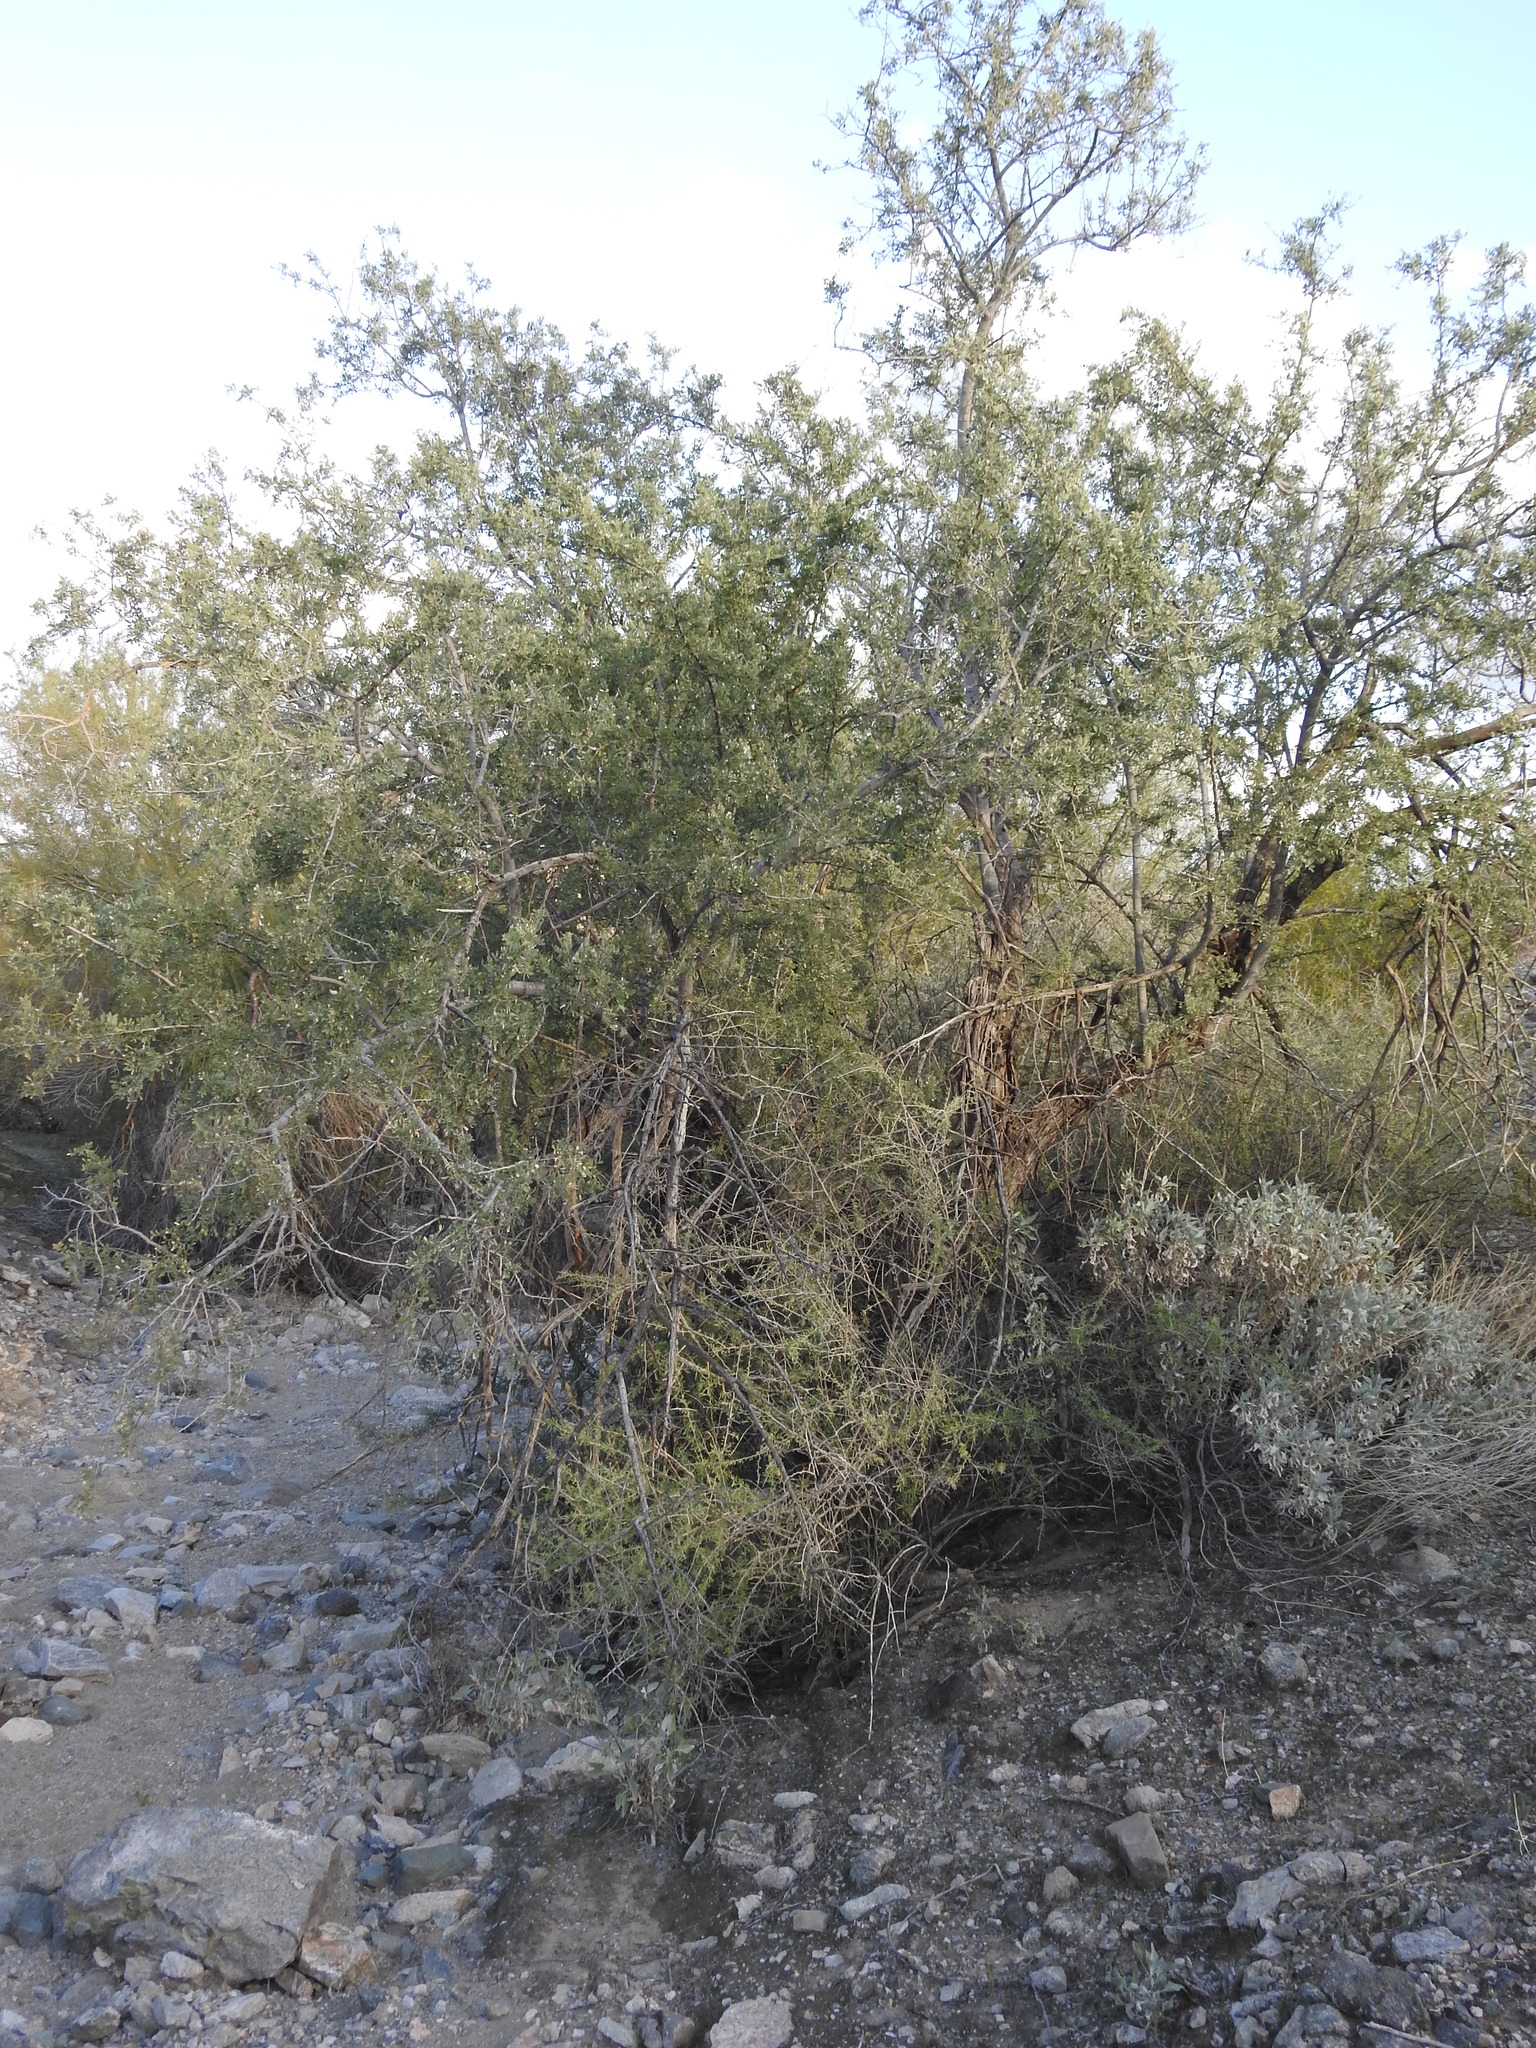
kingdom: Plantae
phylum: Tracheophyta
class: Magnoliopsida
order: Fabales
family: Fabaceae
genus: Olneya
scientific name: Olneya tesota
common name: Desert ironwood
